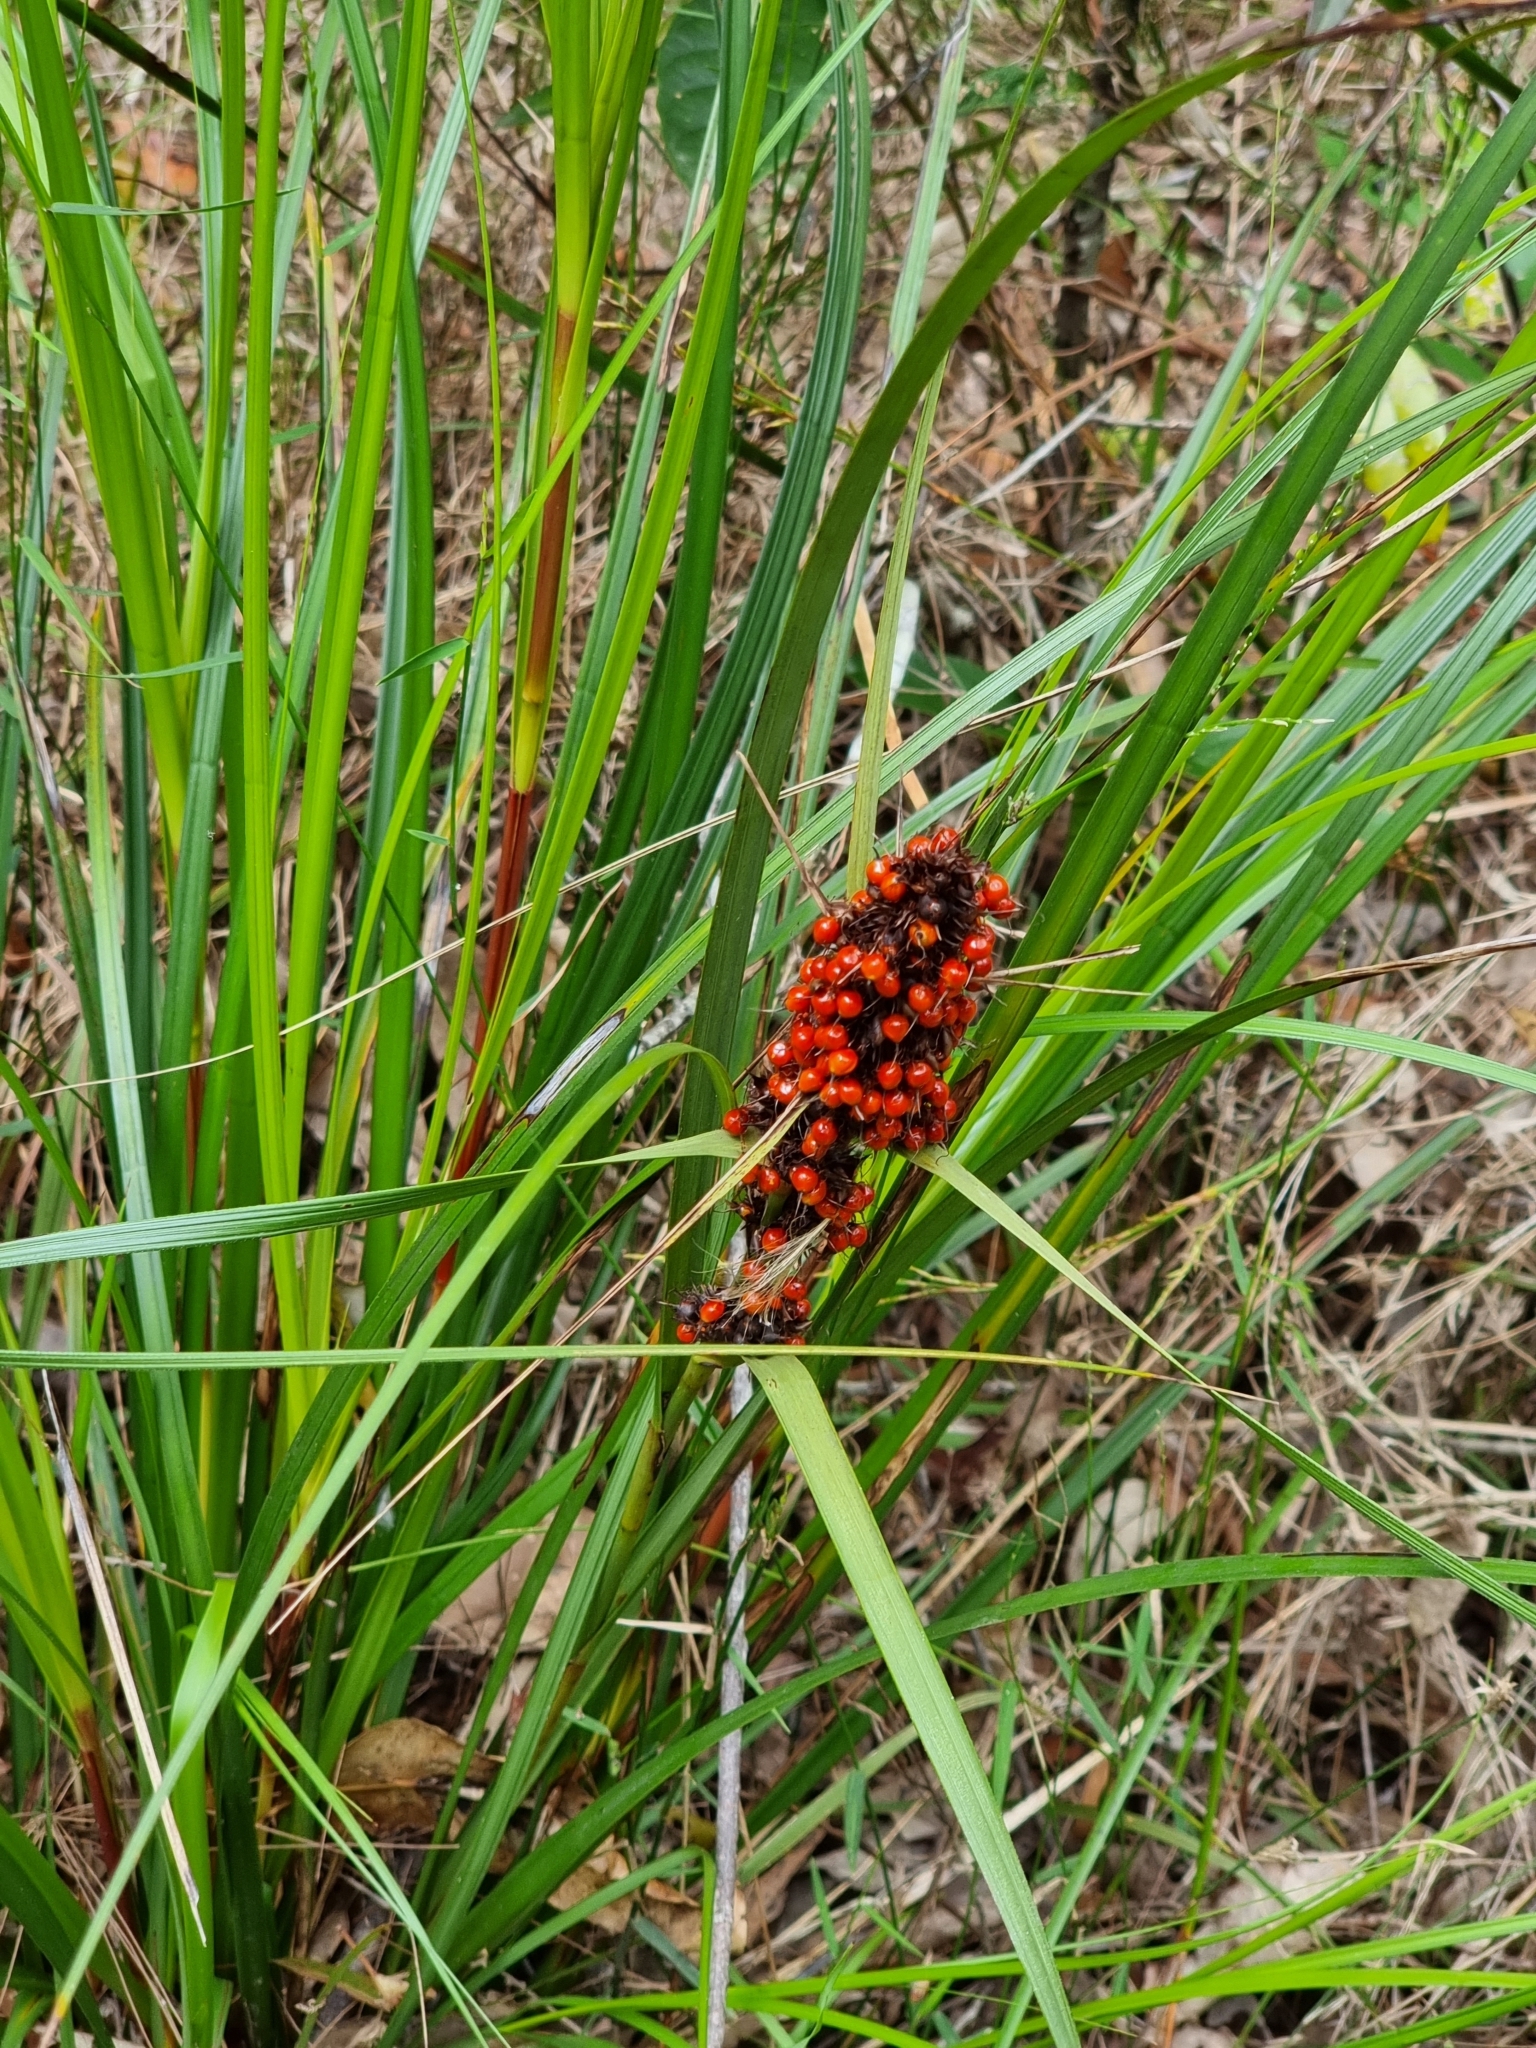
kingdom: Plantae
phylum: Tracheophyta
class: Liliopsida
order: Poales
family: Cyperaceae
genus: Gahnia
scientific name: Gahnia aspera
